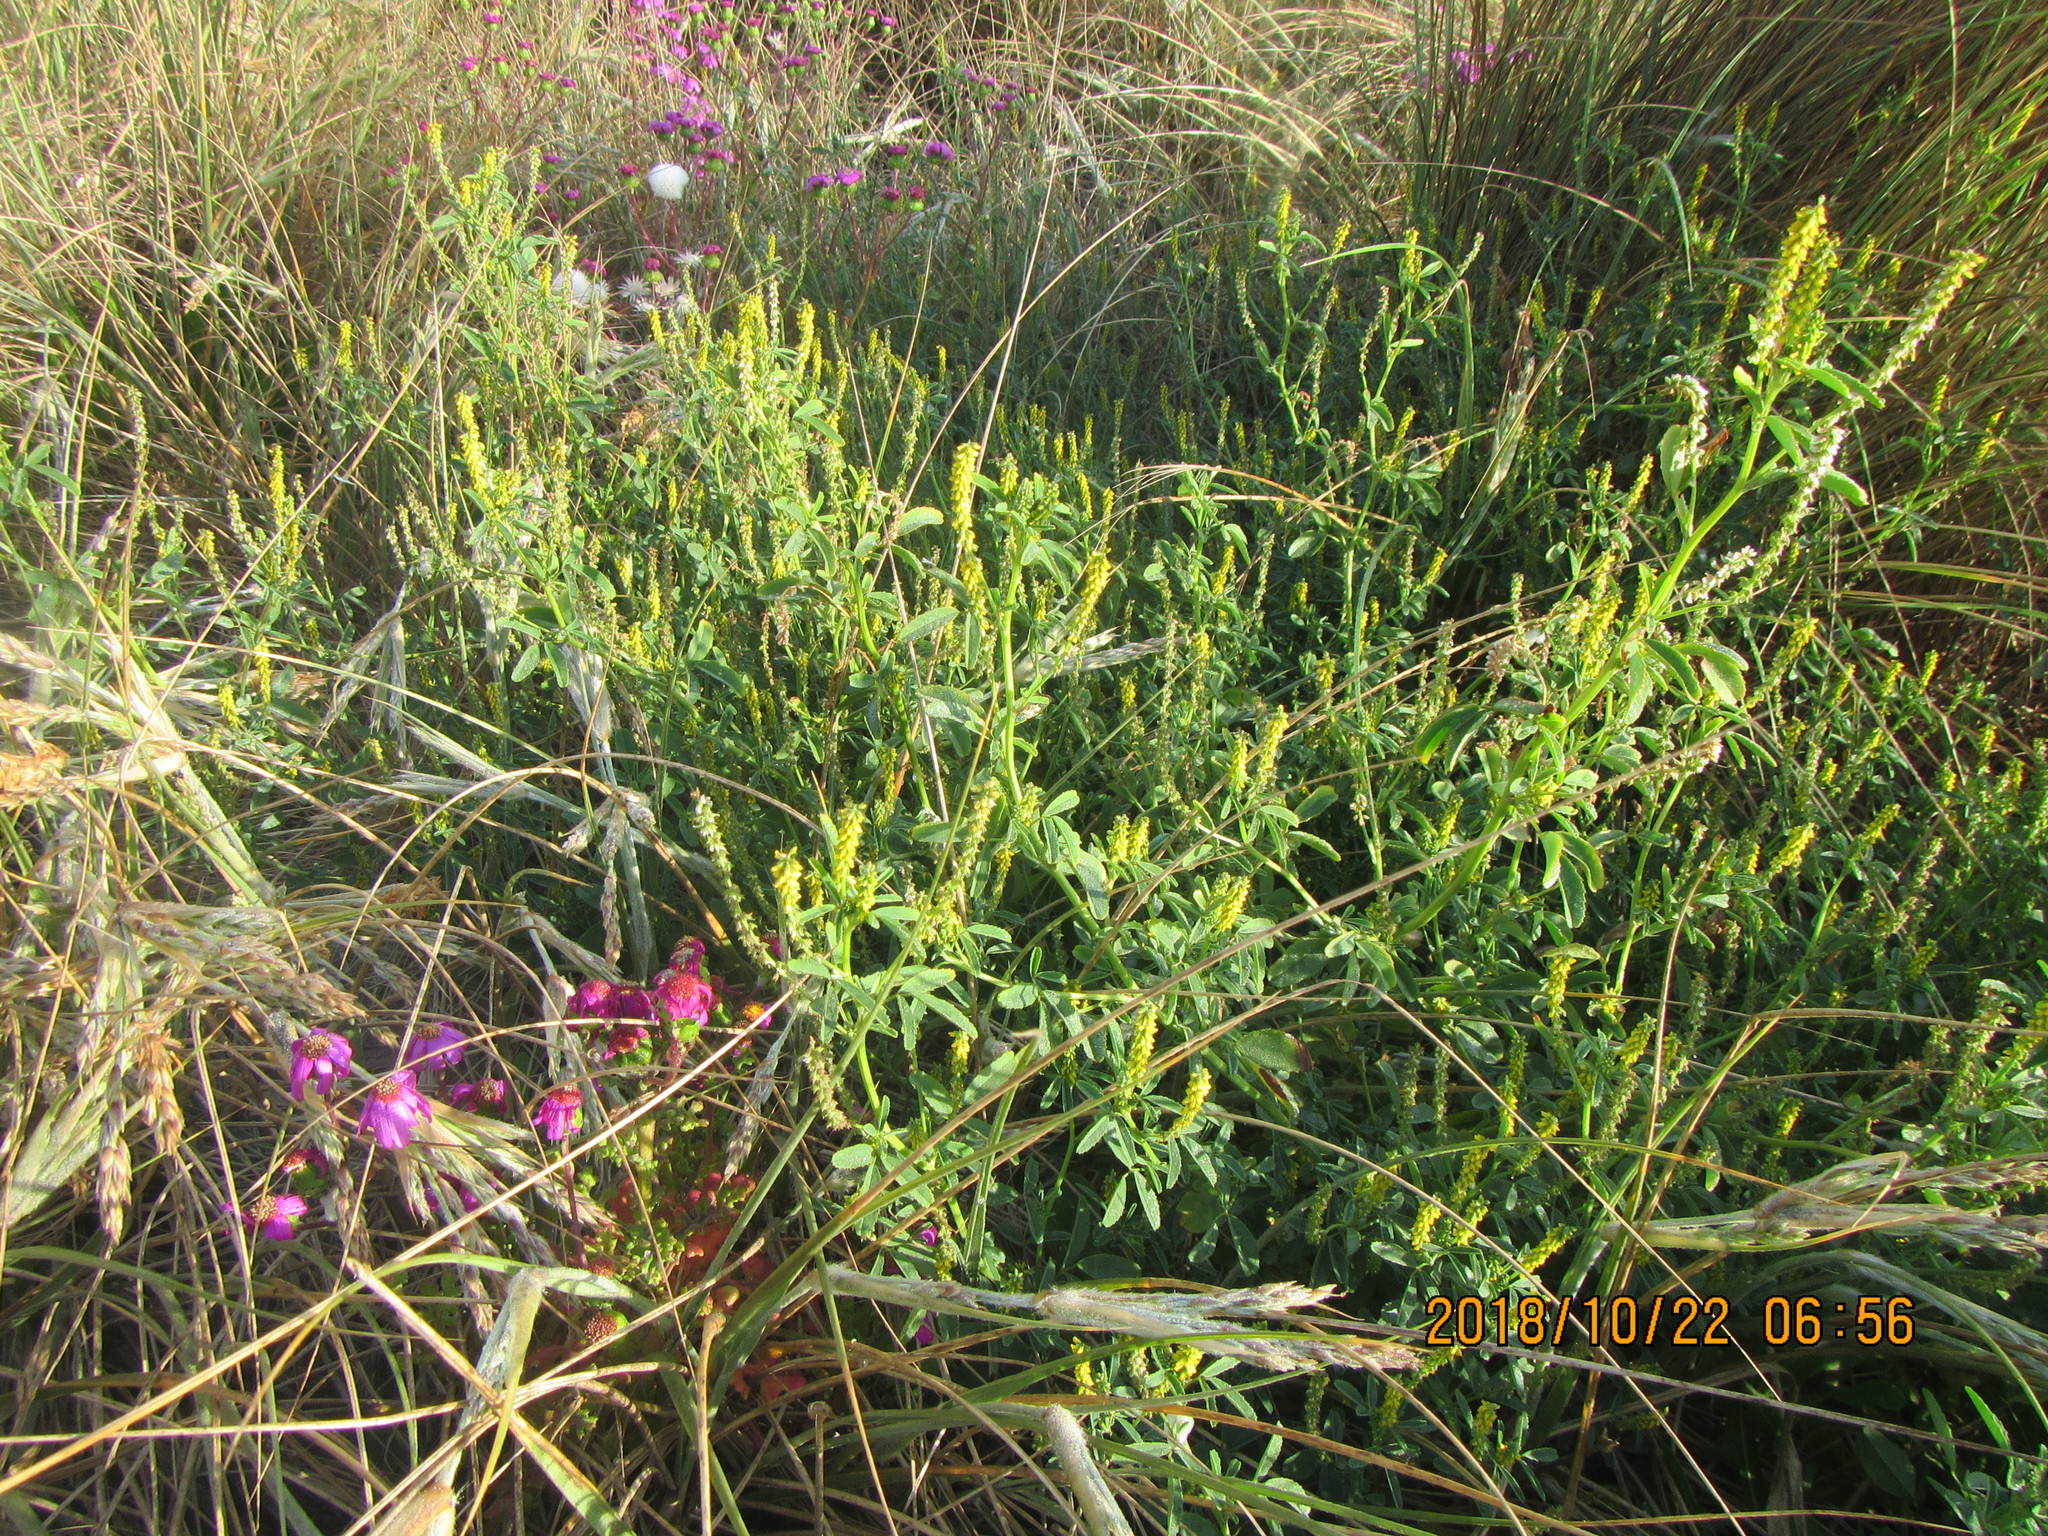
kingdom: Plantae
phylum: Tracheophyta
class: Magnoliopsida
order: Fabales
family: Fabaceae
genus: Melilotus
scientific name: Melilotus indicus
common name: Small melilot
